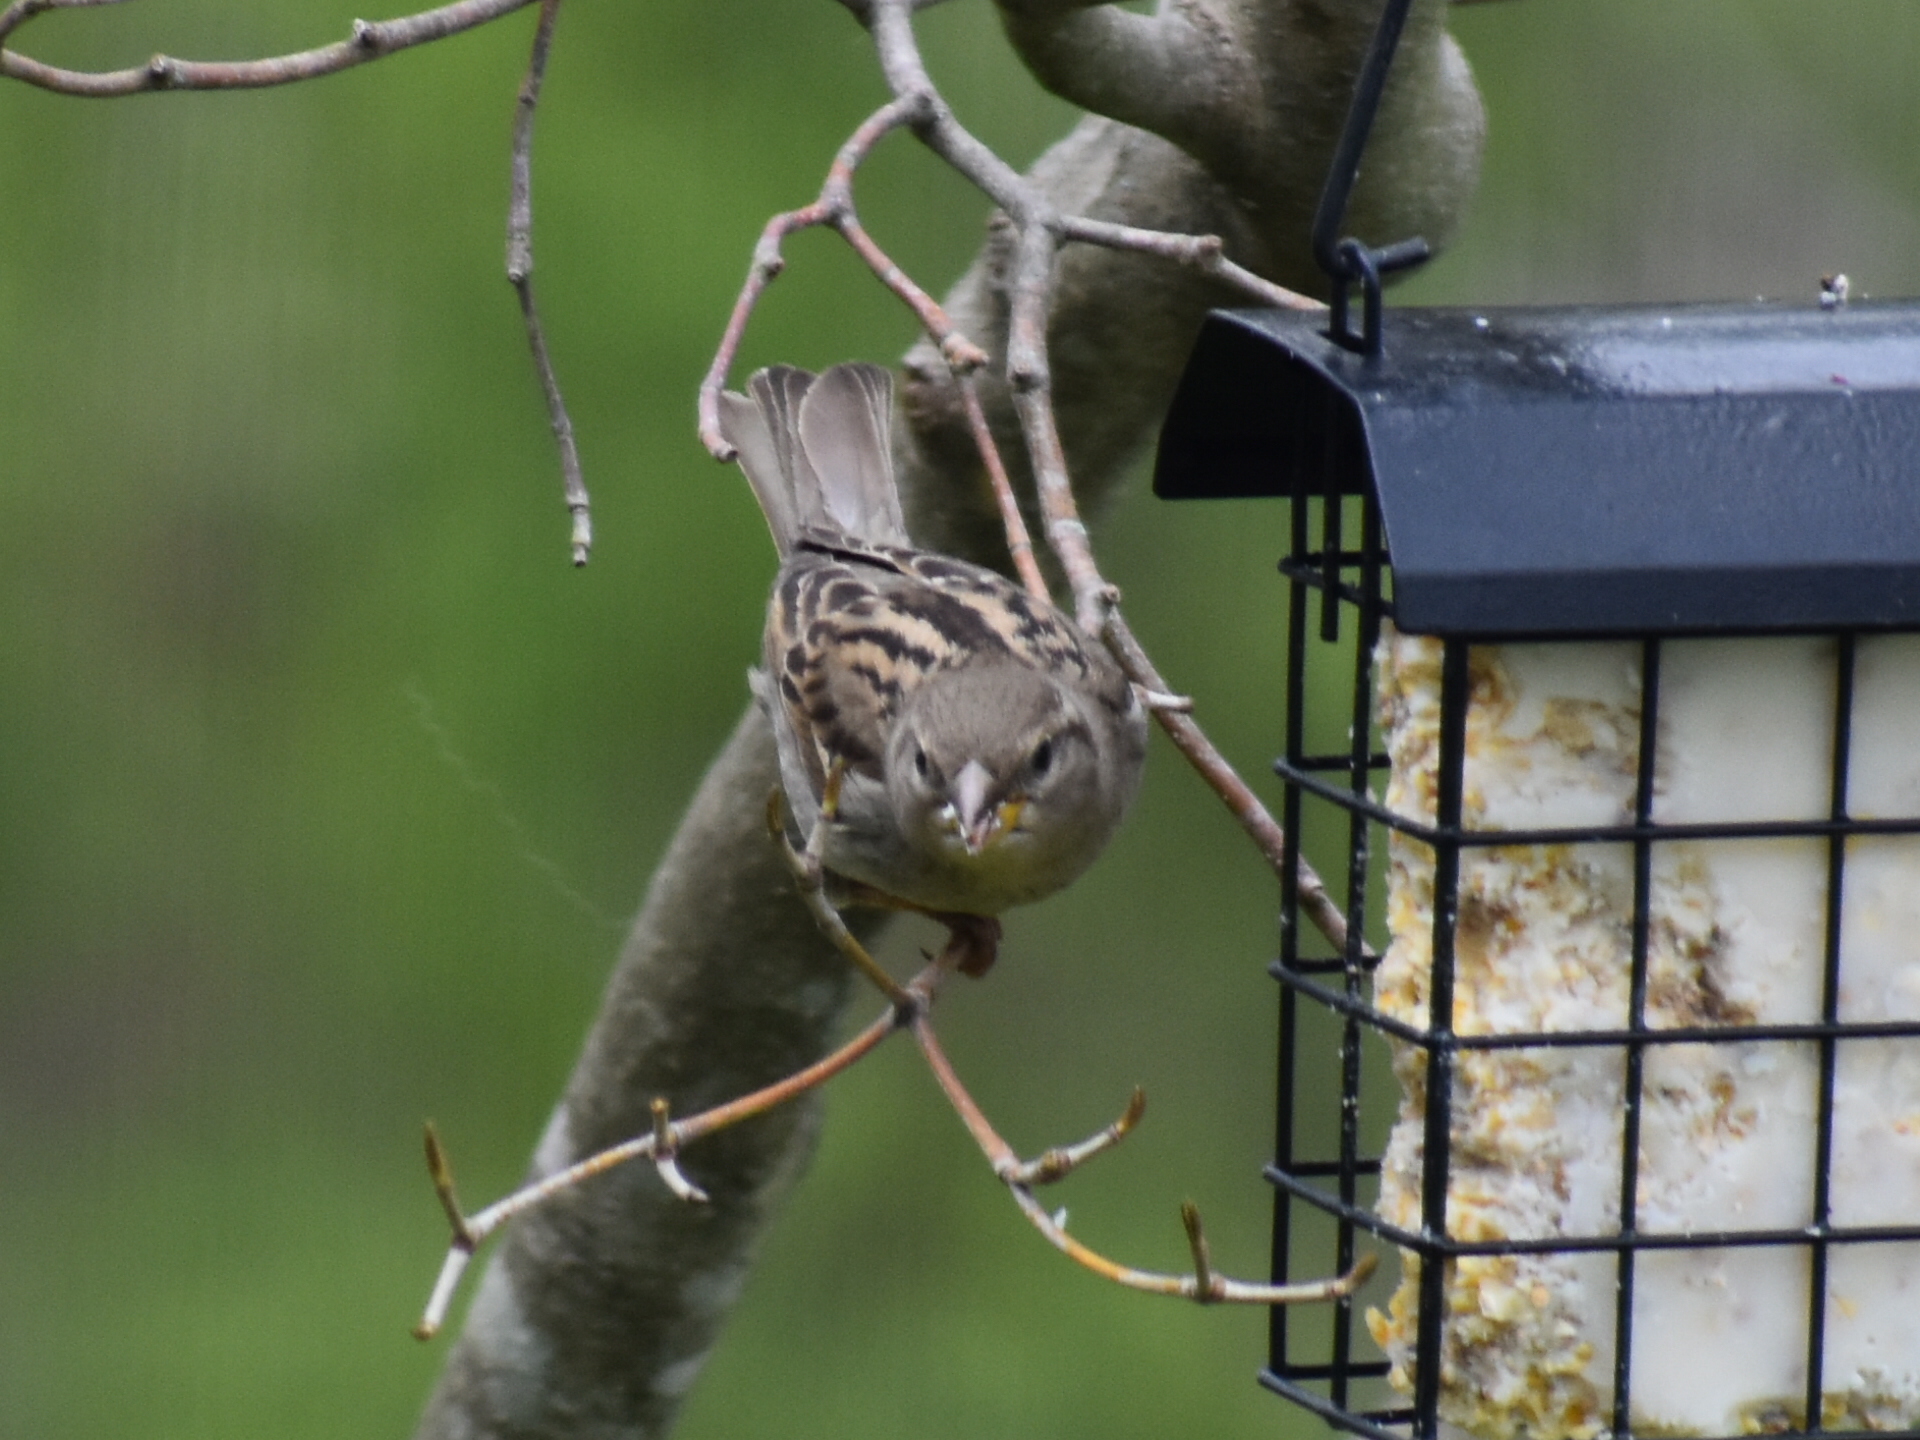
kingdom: Animalia
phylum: Chordata
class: Aves
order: Passeriformes
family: Passeridae
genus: Passer
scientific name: Passer domesticus
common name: House sparrow
